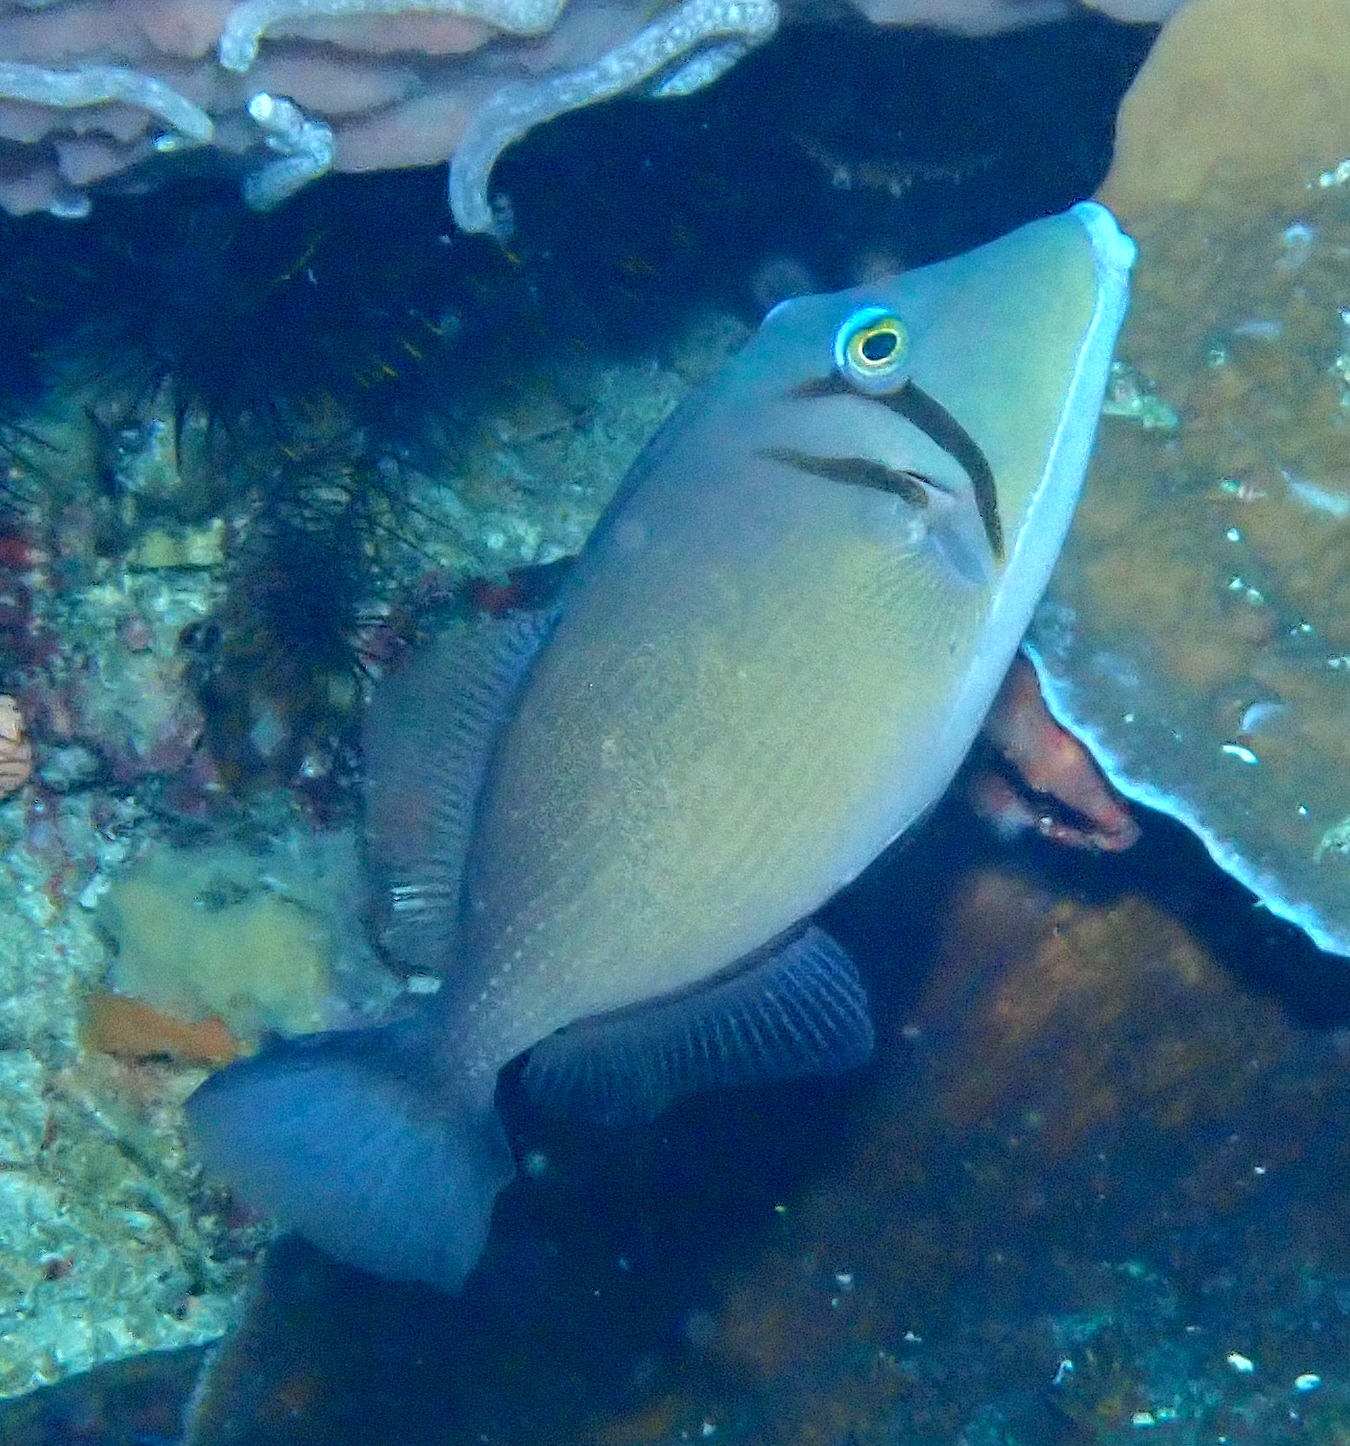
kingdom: Animalia
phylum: Chordata
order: Tetraodontiformes
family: Balistidae
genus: Sufflamen
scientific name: Sufflamen bursa
